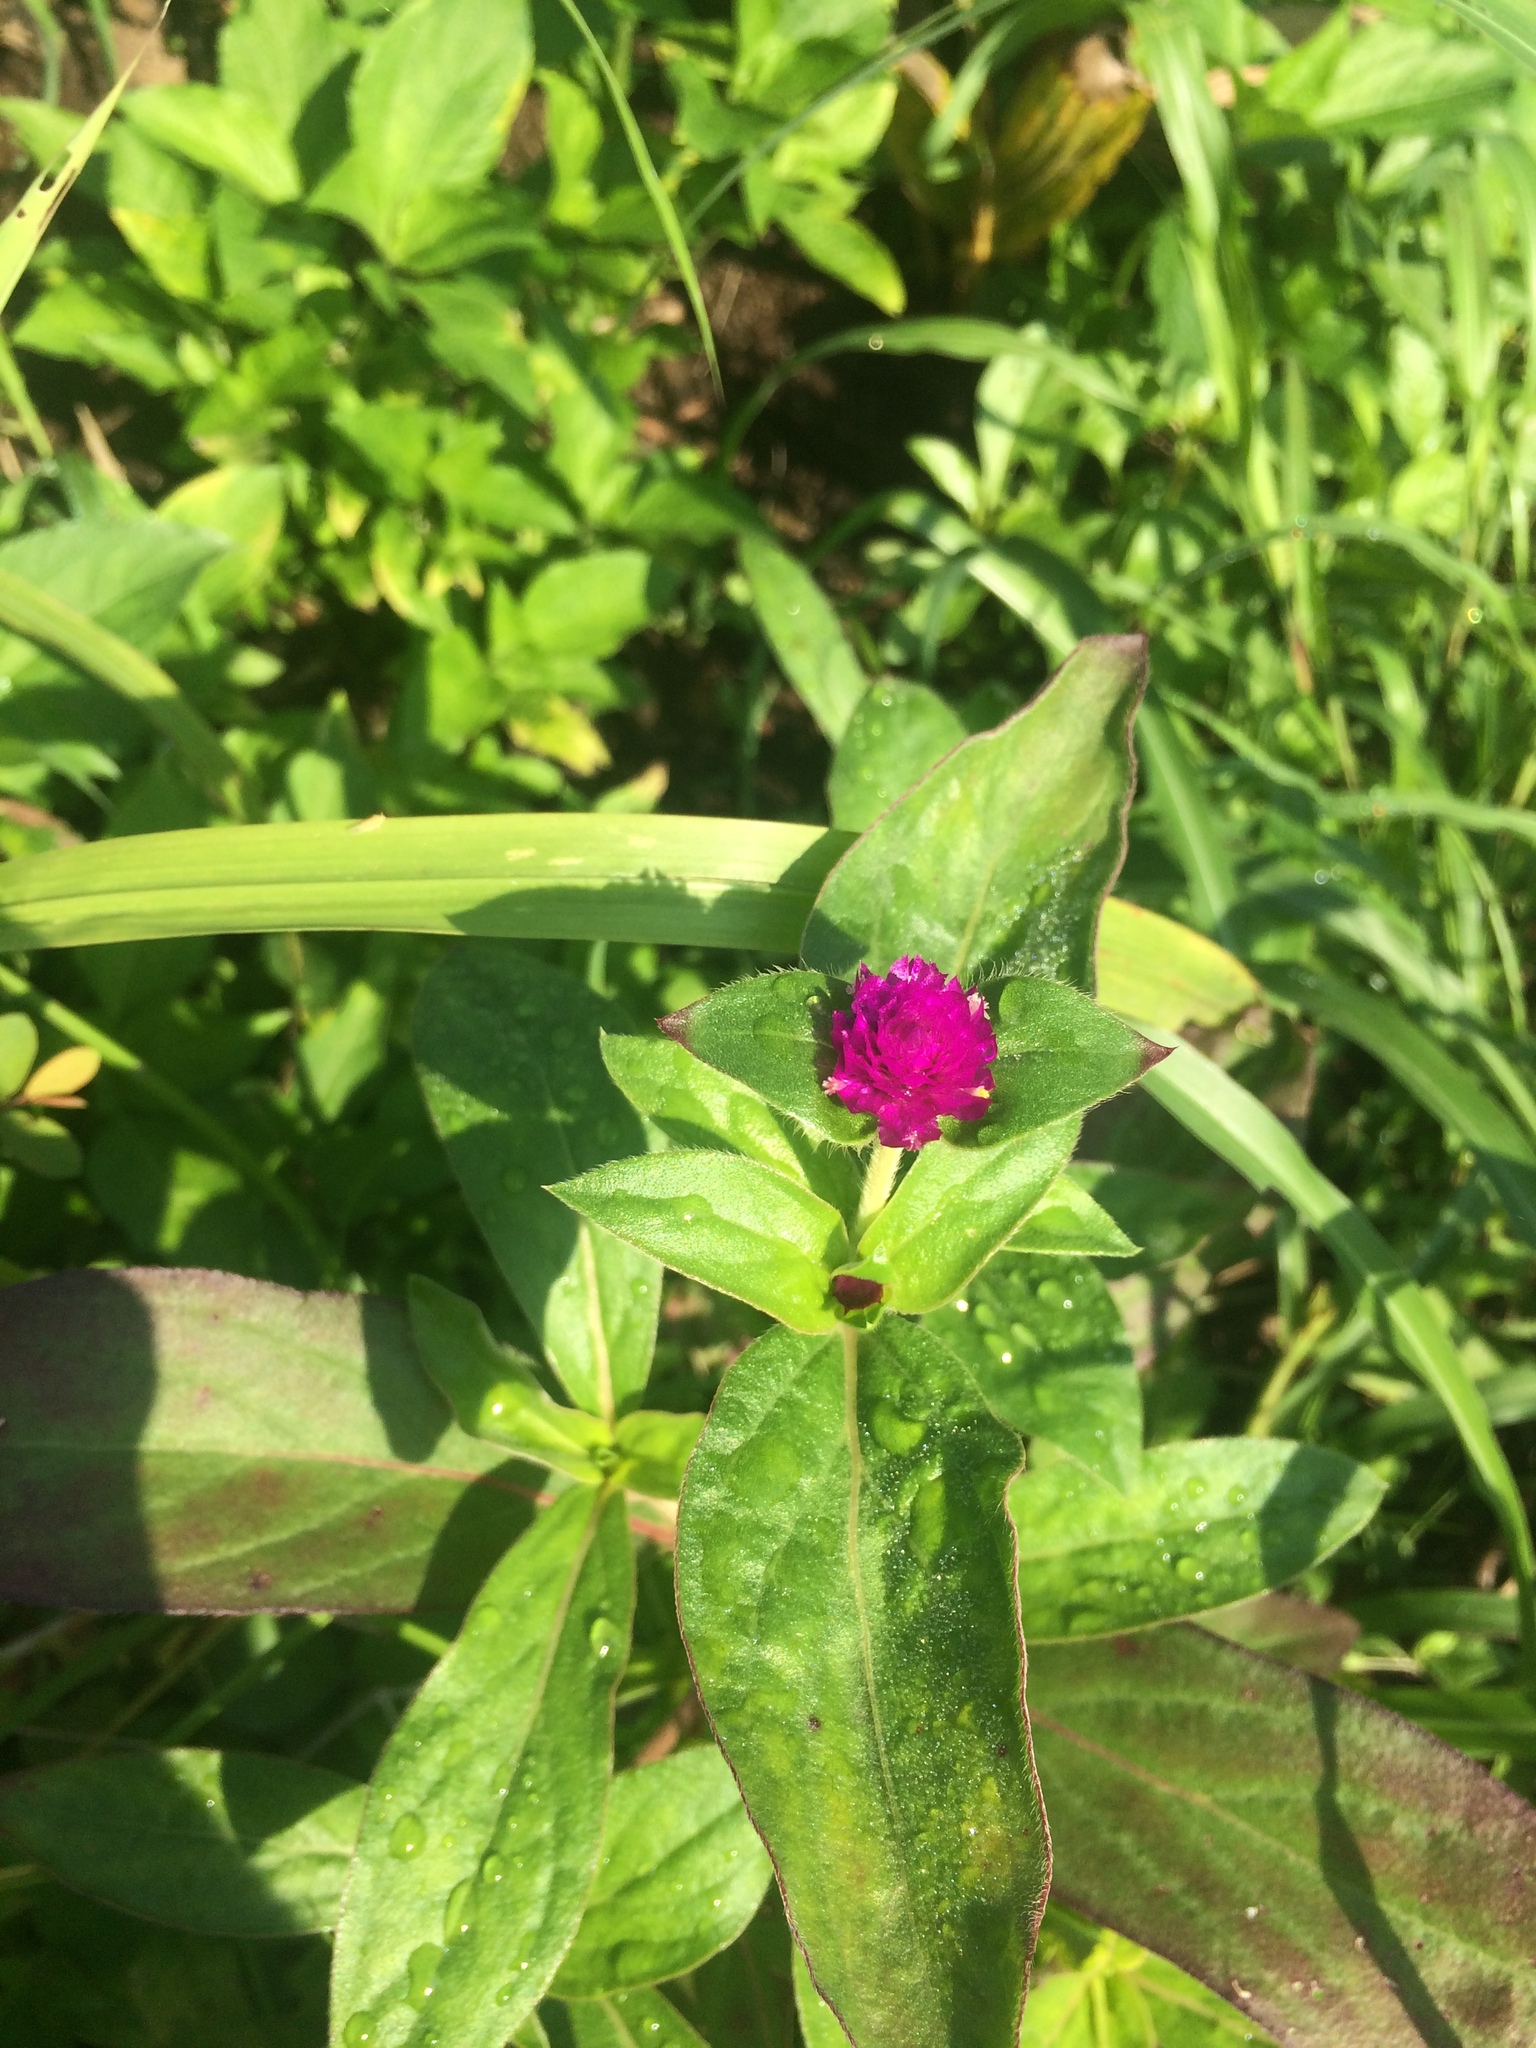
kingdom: Plantae
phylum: Tracheophyta
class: Magnoliopsida
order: Caryophyllales
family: Amaranthaceae
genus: Gomphrena
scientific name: Gomphrena globosa
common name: Common globe amaranth
